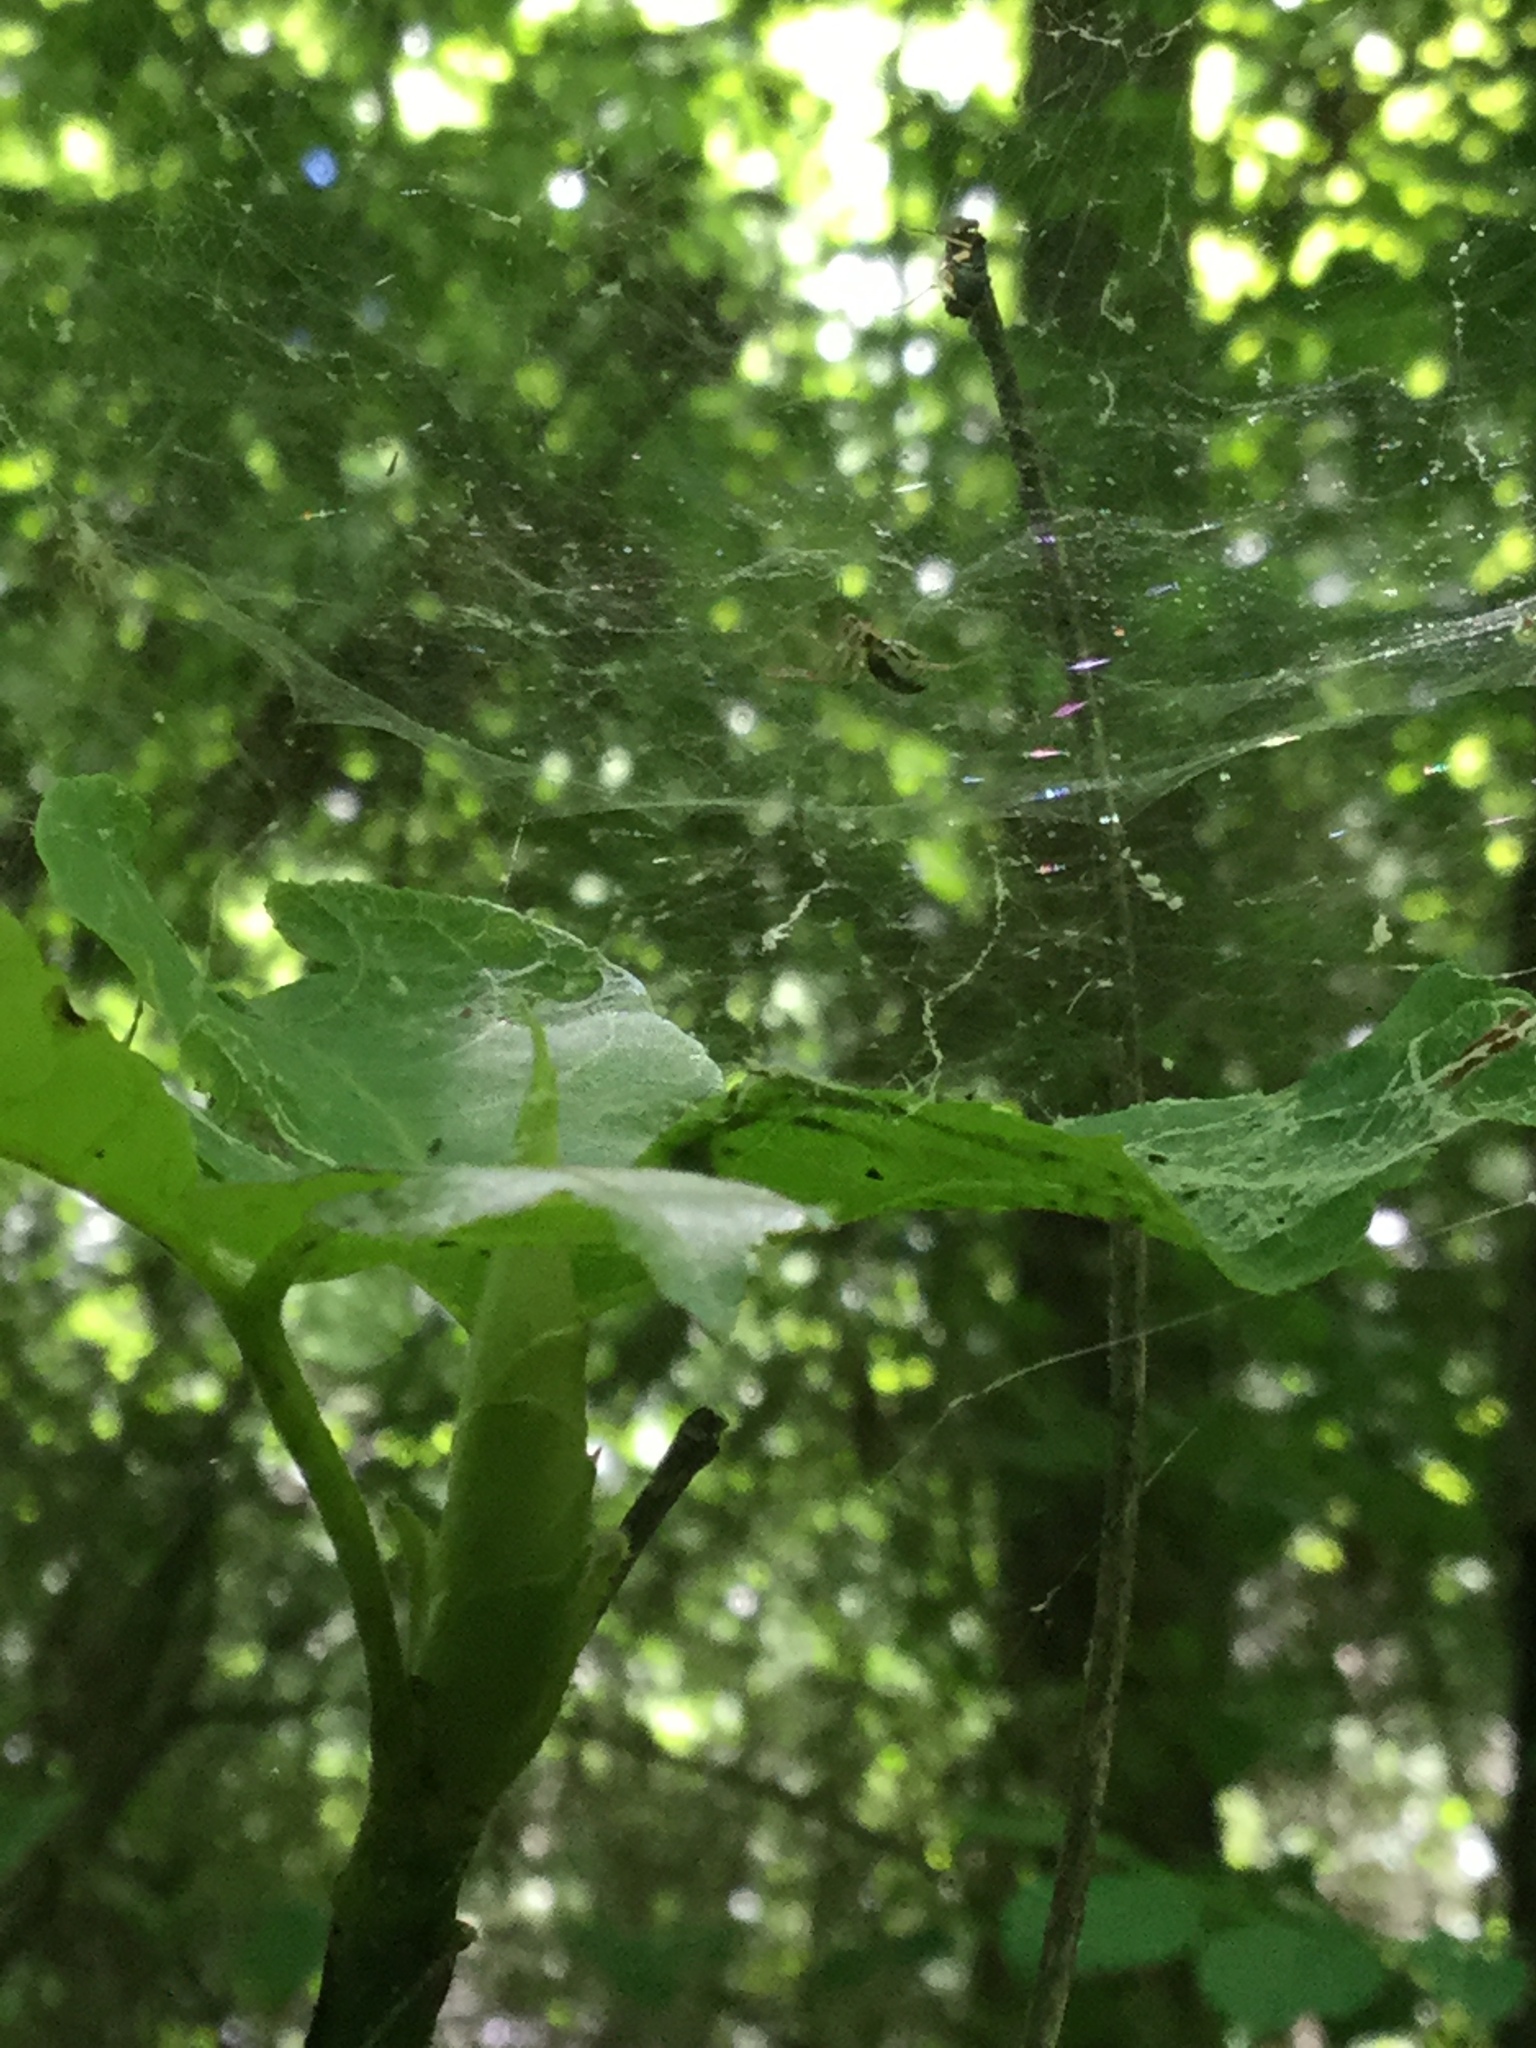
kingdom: Animalia
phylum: Arthropoda
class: Arachnida
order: Araneae
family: Linyphiidae
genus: Frontinella
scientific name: Frontinella pyramitela
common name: Bowl-and-doily spider
